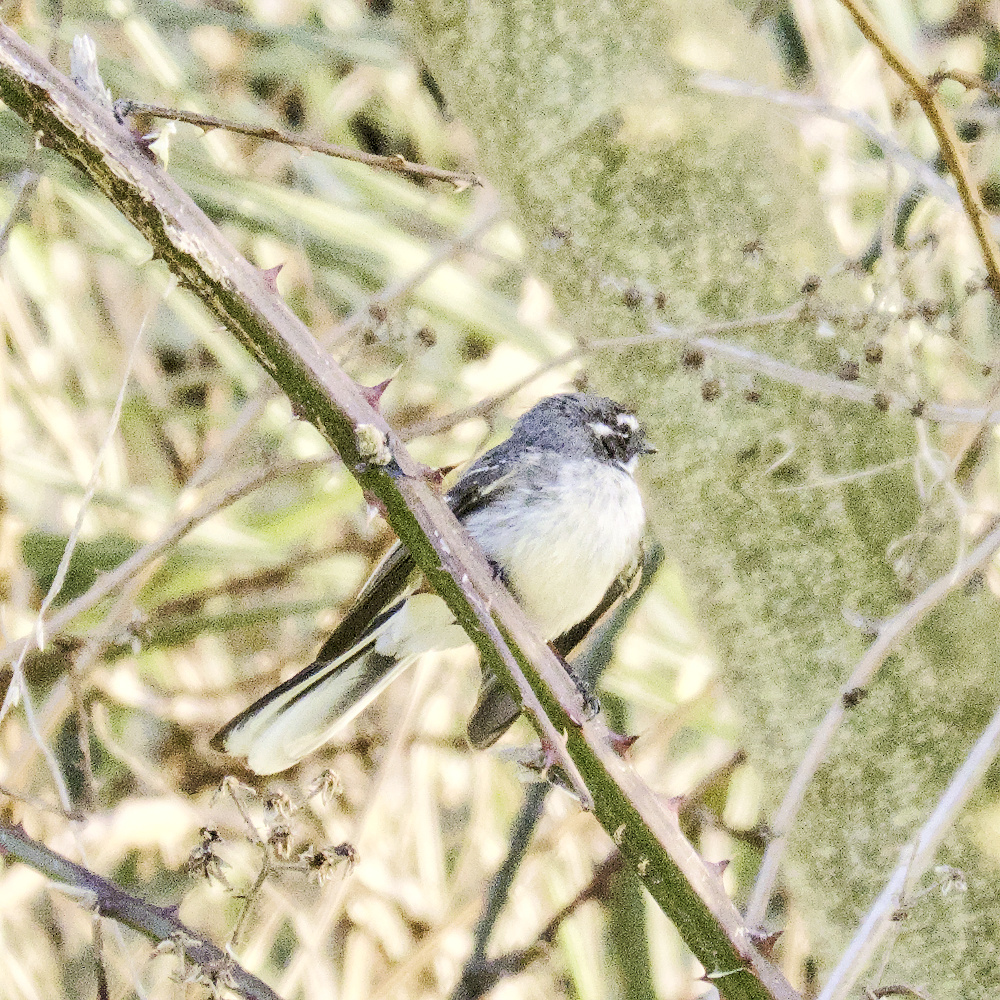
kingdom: Animalia
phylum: Chordata
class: Aves
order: Passeriformes
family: Rhipiduridae
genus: Rhipidura
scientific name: Rhipidura albiscapa
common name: Grey fantail
